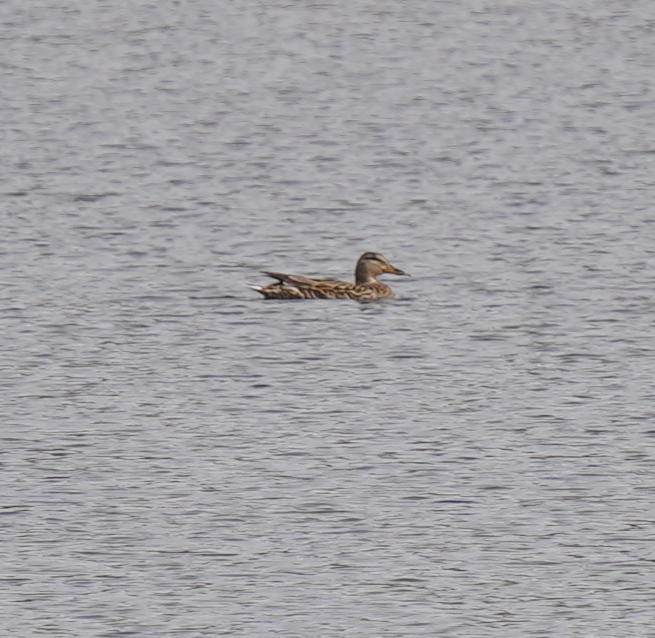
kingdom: Animalia
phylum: Chordata
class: Aves
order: Anseriformes
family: Anatidae
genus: Anas
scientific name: Anas platyrhynchos
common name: Mallard
